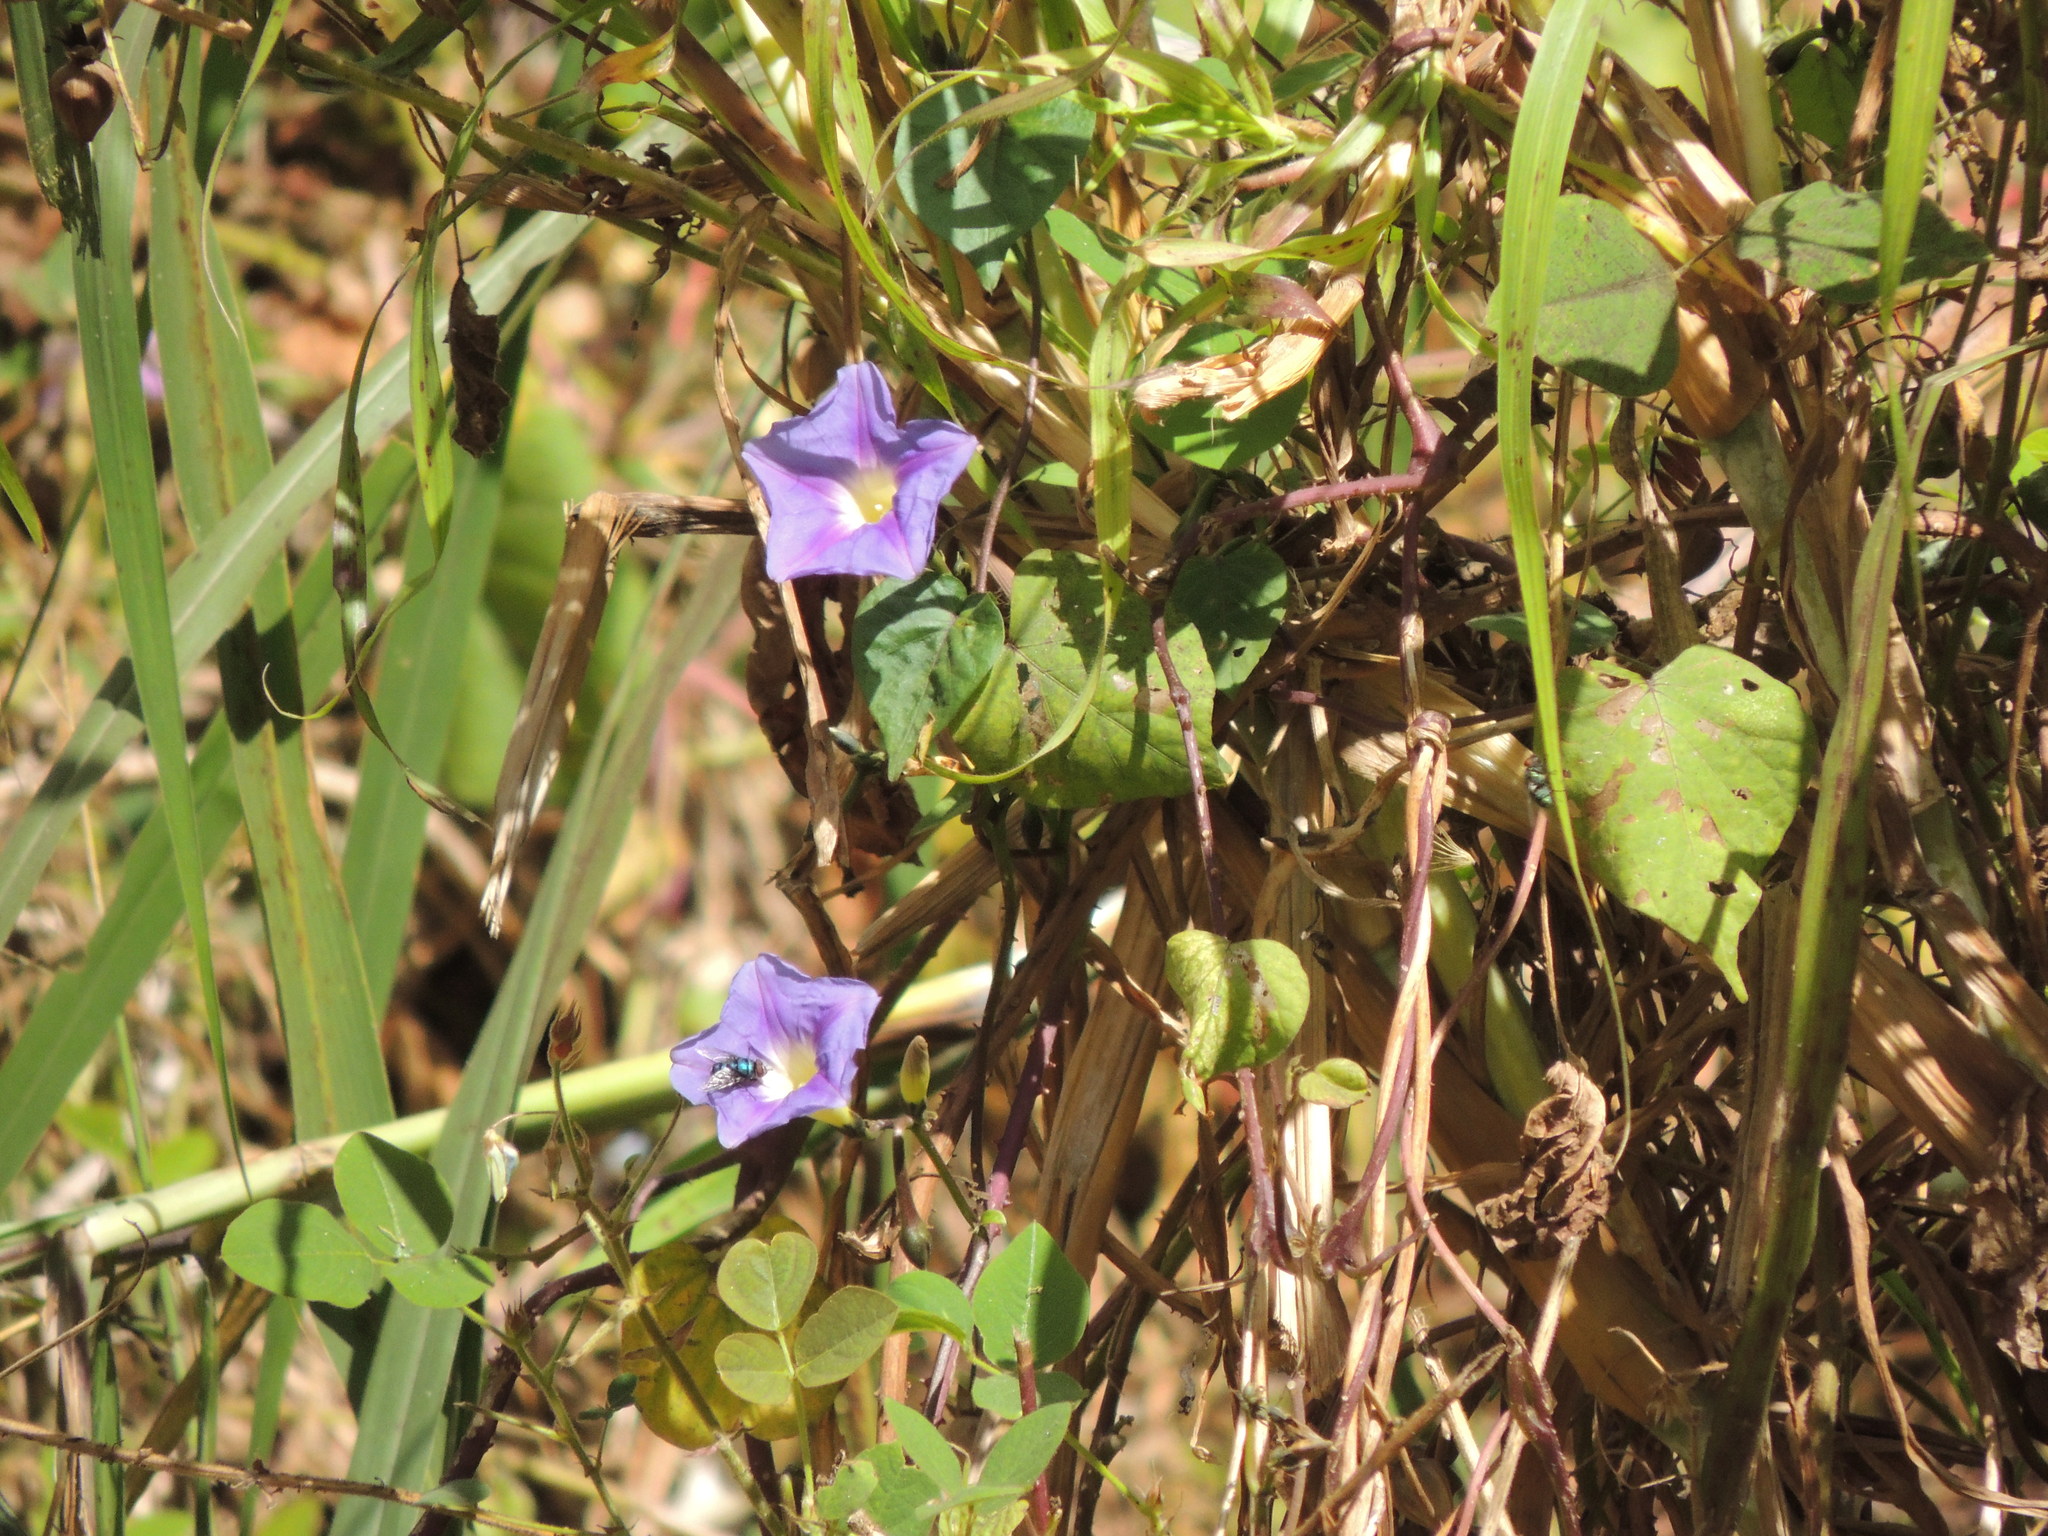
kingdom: Plantae
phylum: Tracheophyta
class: Magnoliopsida
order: Solanales
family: Convolvulaceae
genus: Ipomoea
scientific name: Ipomoea parasitica
